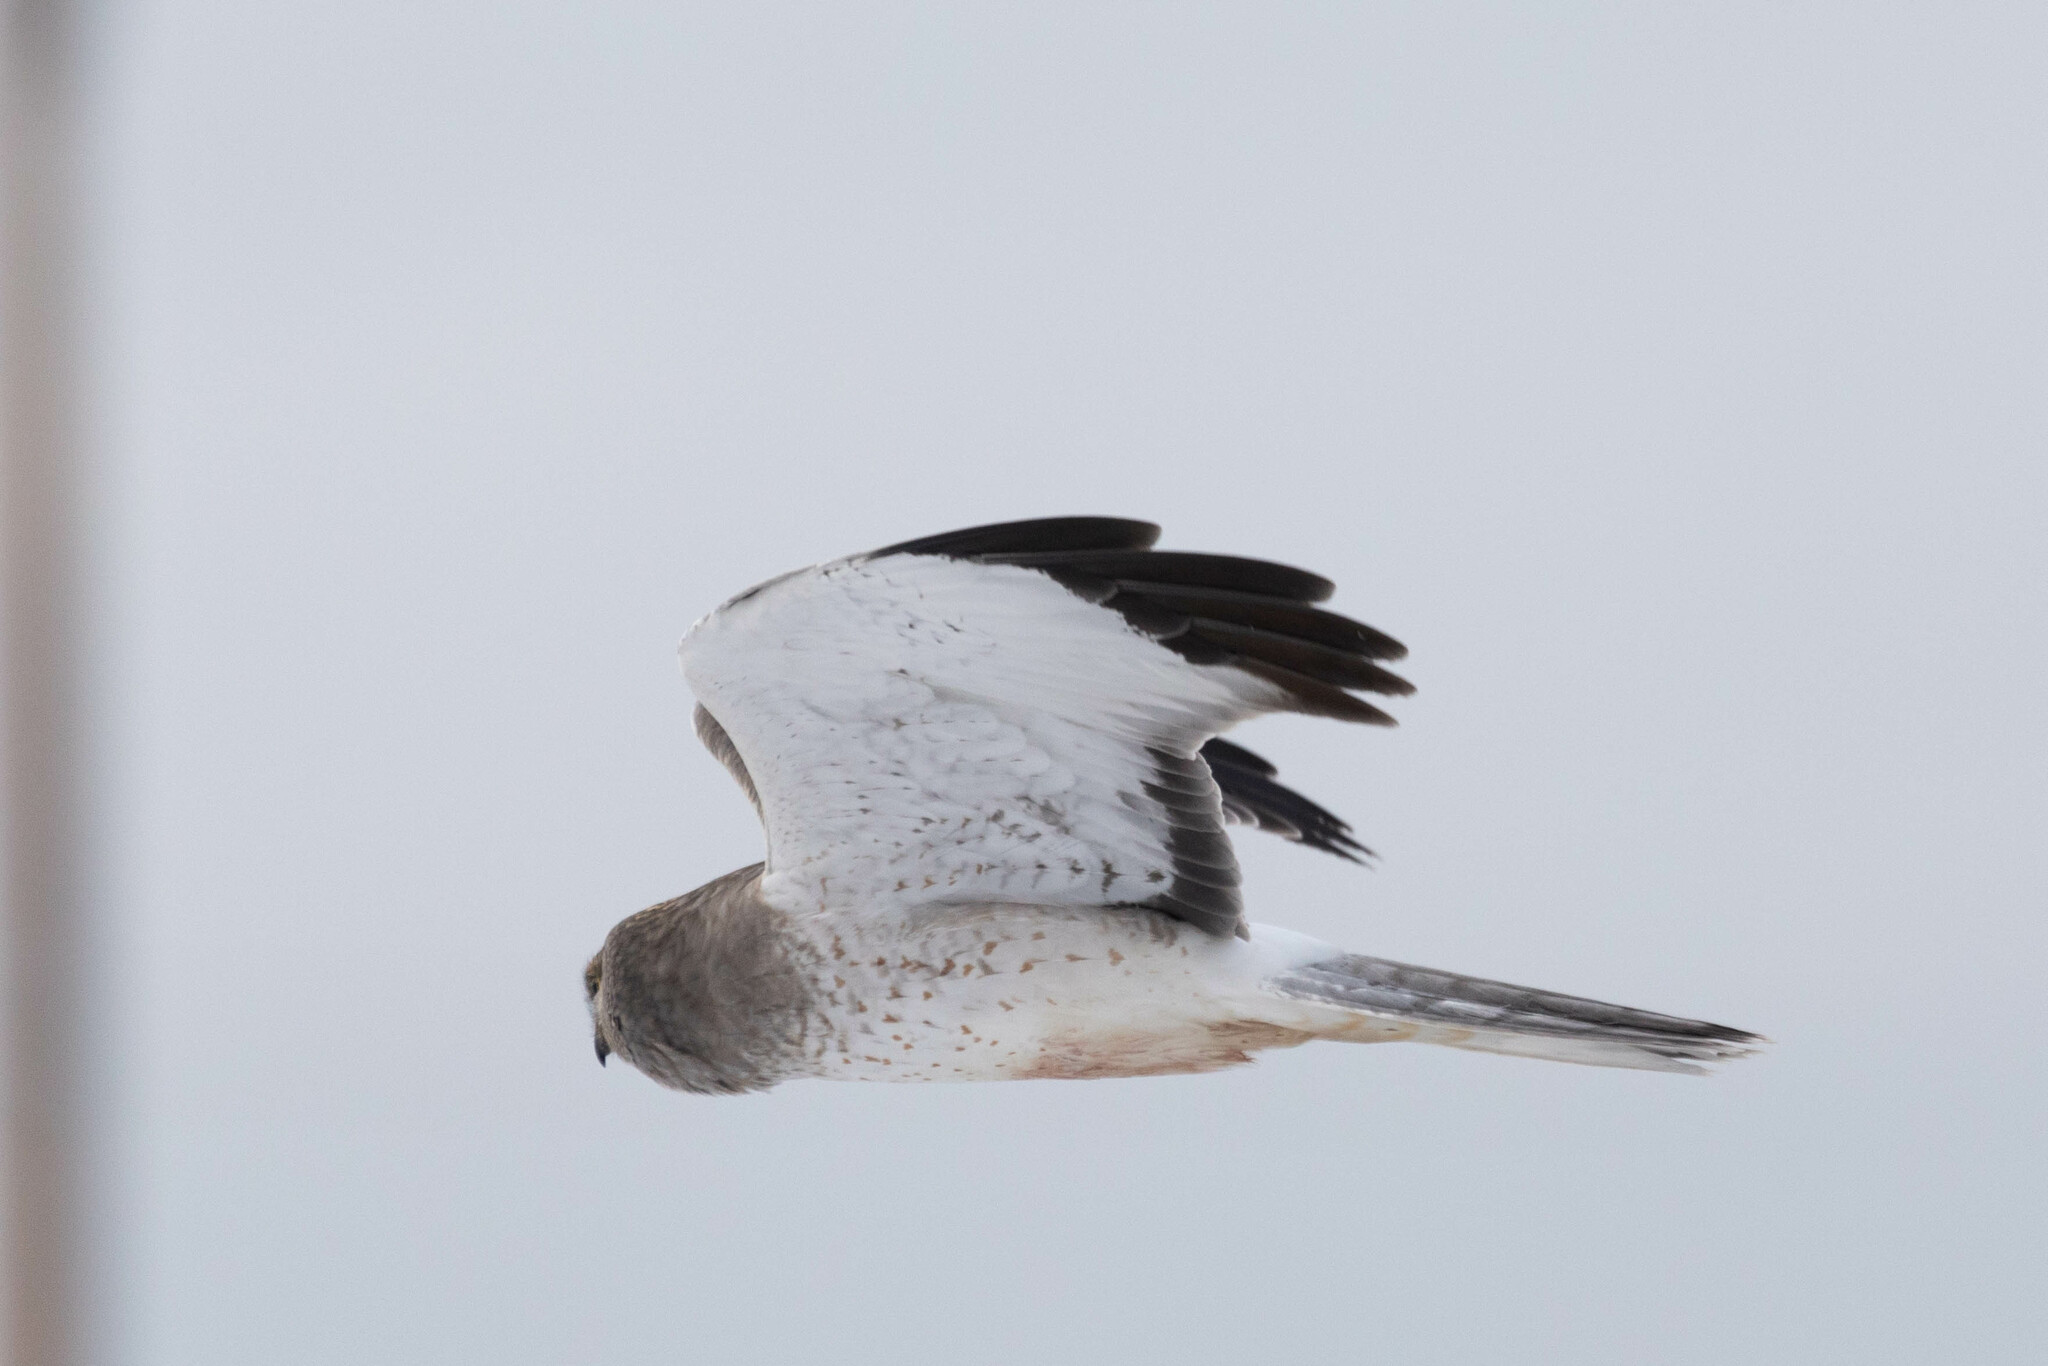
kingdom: Animalia
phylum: Chordata
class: Aves
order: Accipitriformes
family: Accipitridae
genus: Circus
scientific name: Circus cyaneus
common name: Hen harrier
